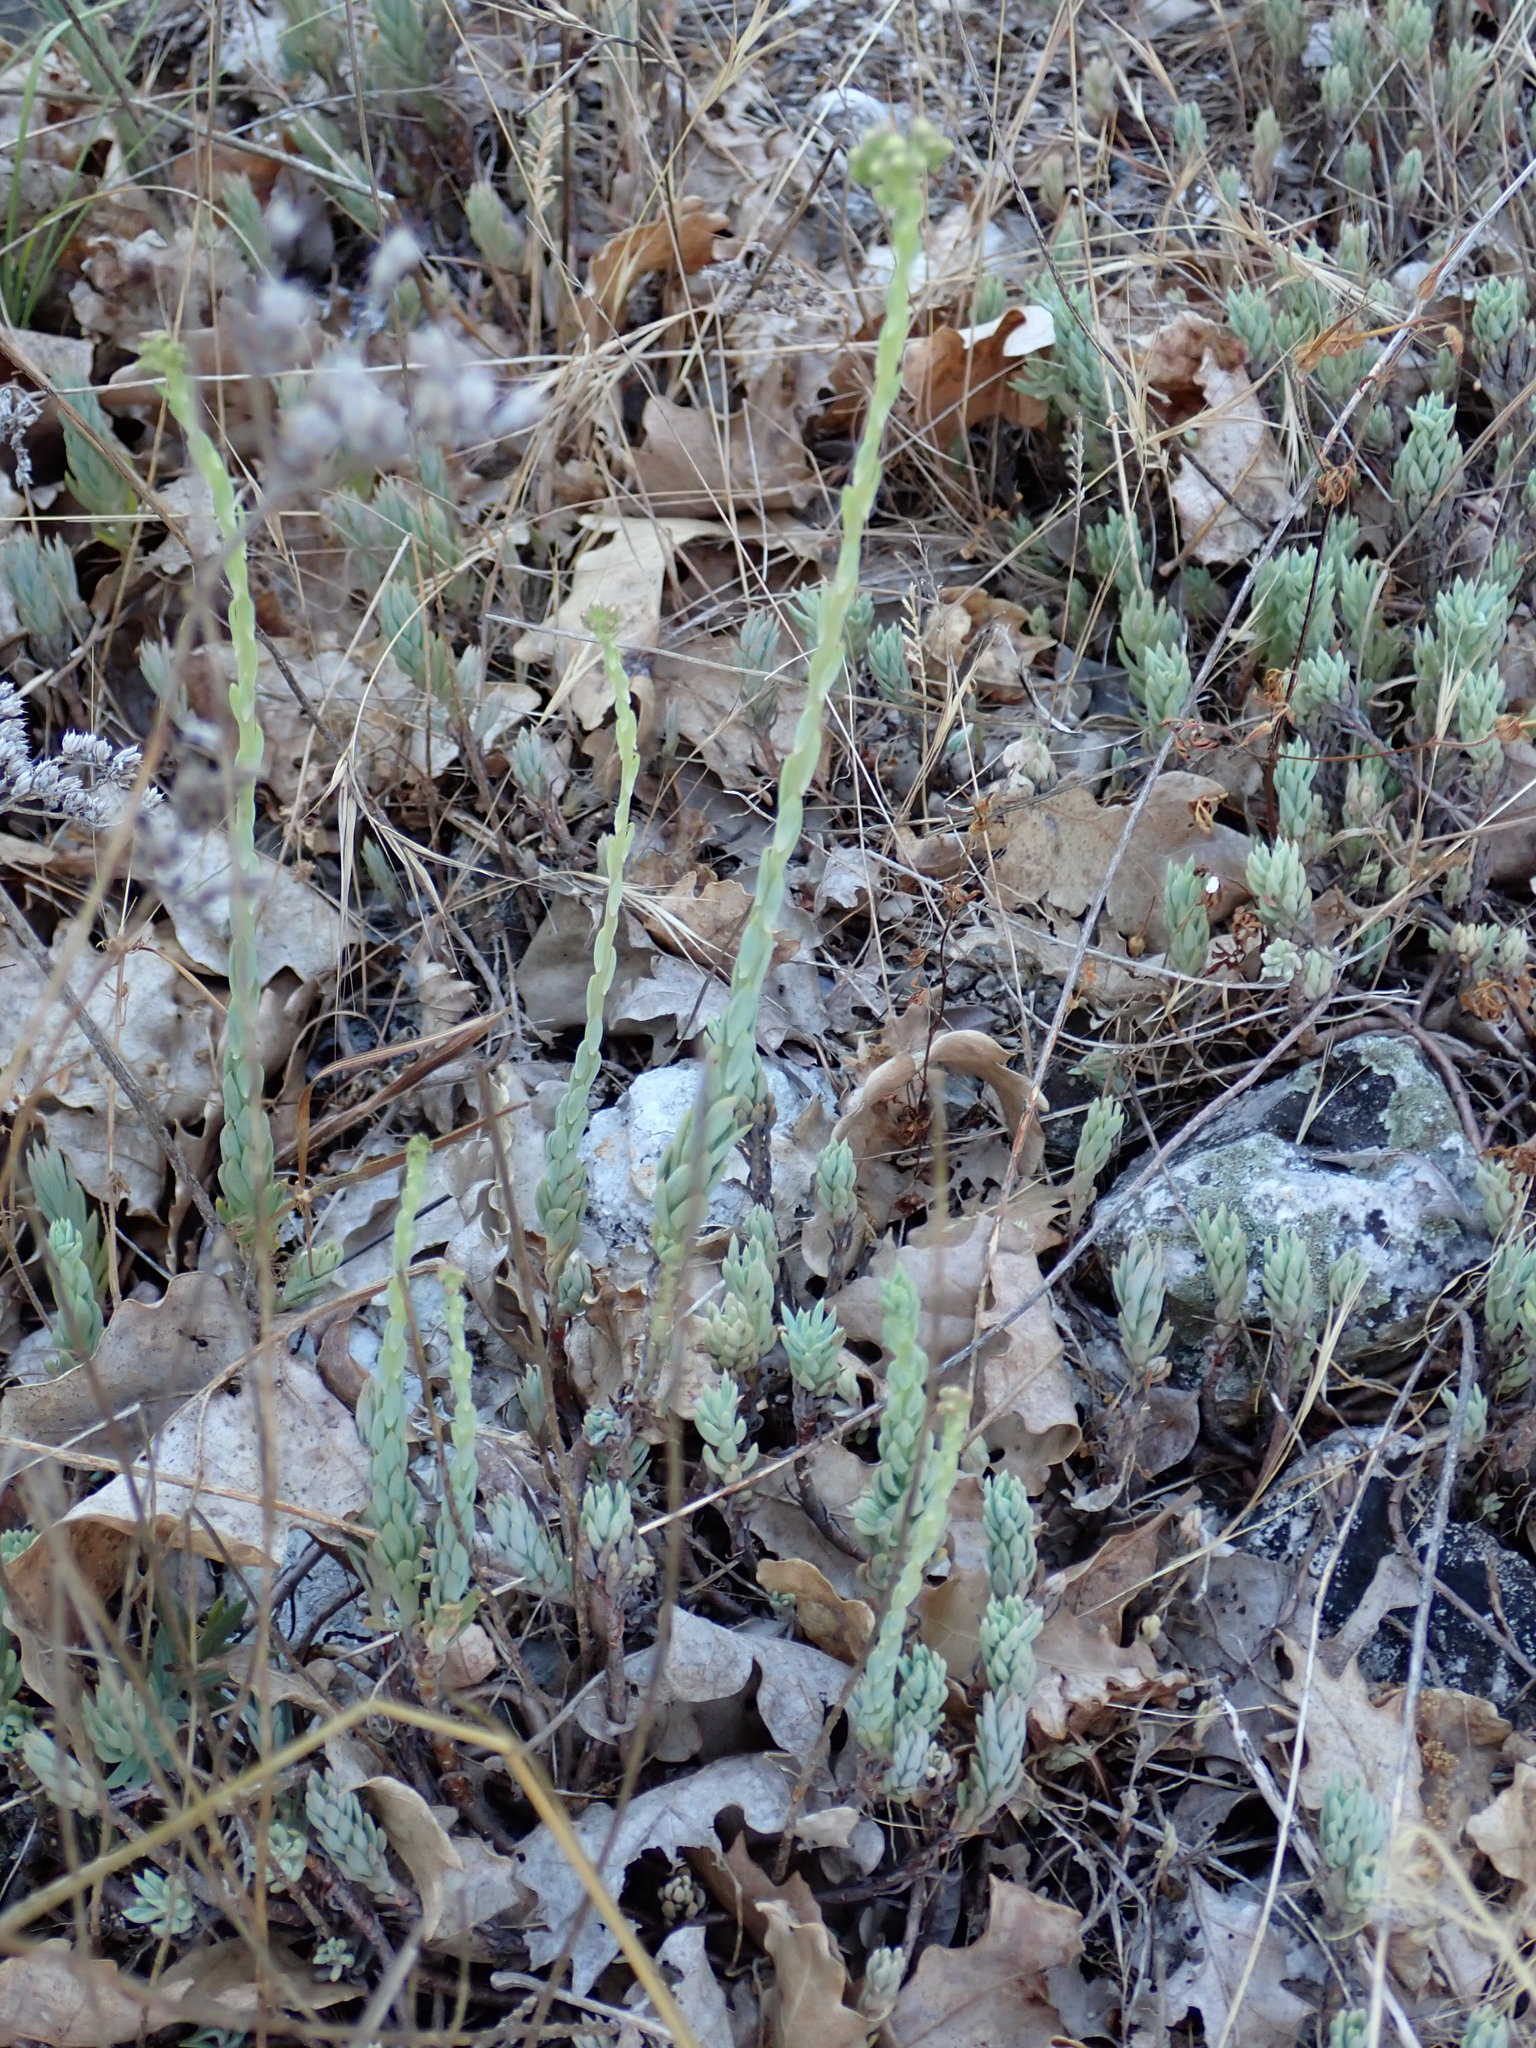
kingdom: Plantae
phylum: Tracheophyta
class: Magnoliopsida
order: Saxifragales
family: Crassulaceae
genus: Petrosedum
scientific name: Petrosedum sediforme
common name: Pale stonecrop
